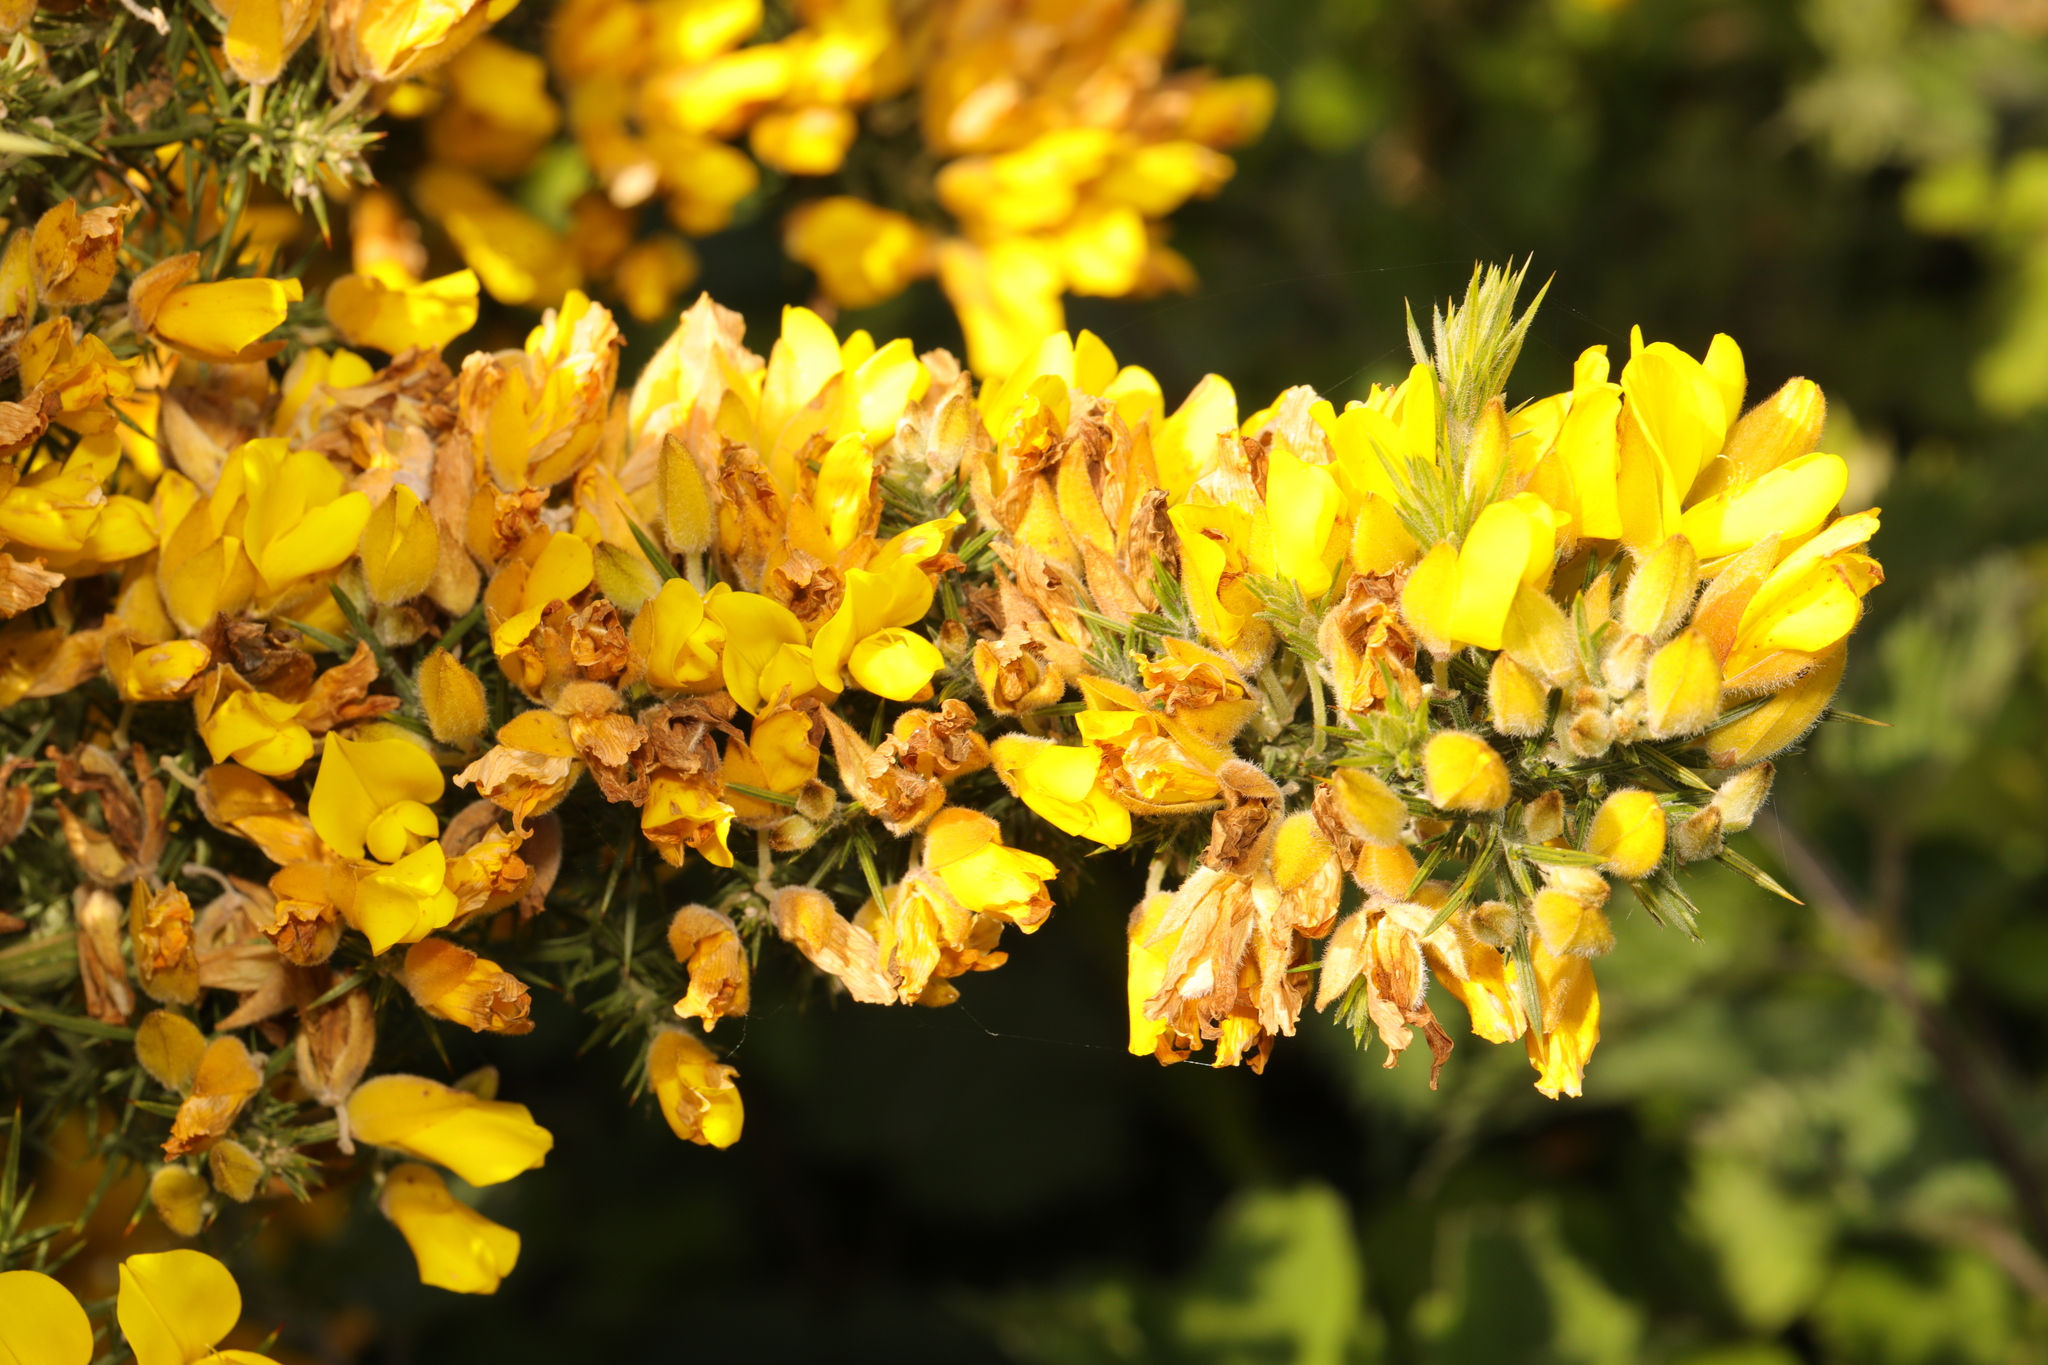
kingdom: Plantae
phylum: Tracheophyta
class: Magnoliopsida
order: Fabales
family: Fabaceae
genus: Ulex
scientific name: Ulex europaeus
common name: Common gorse
